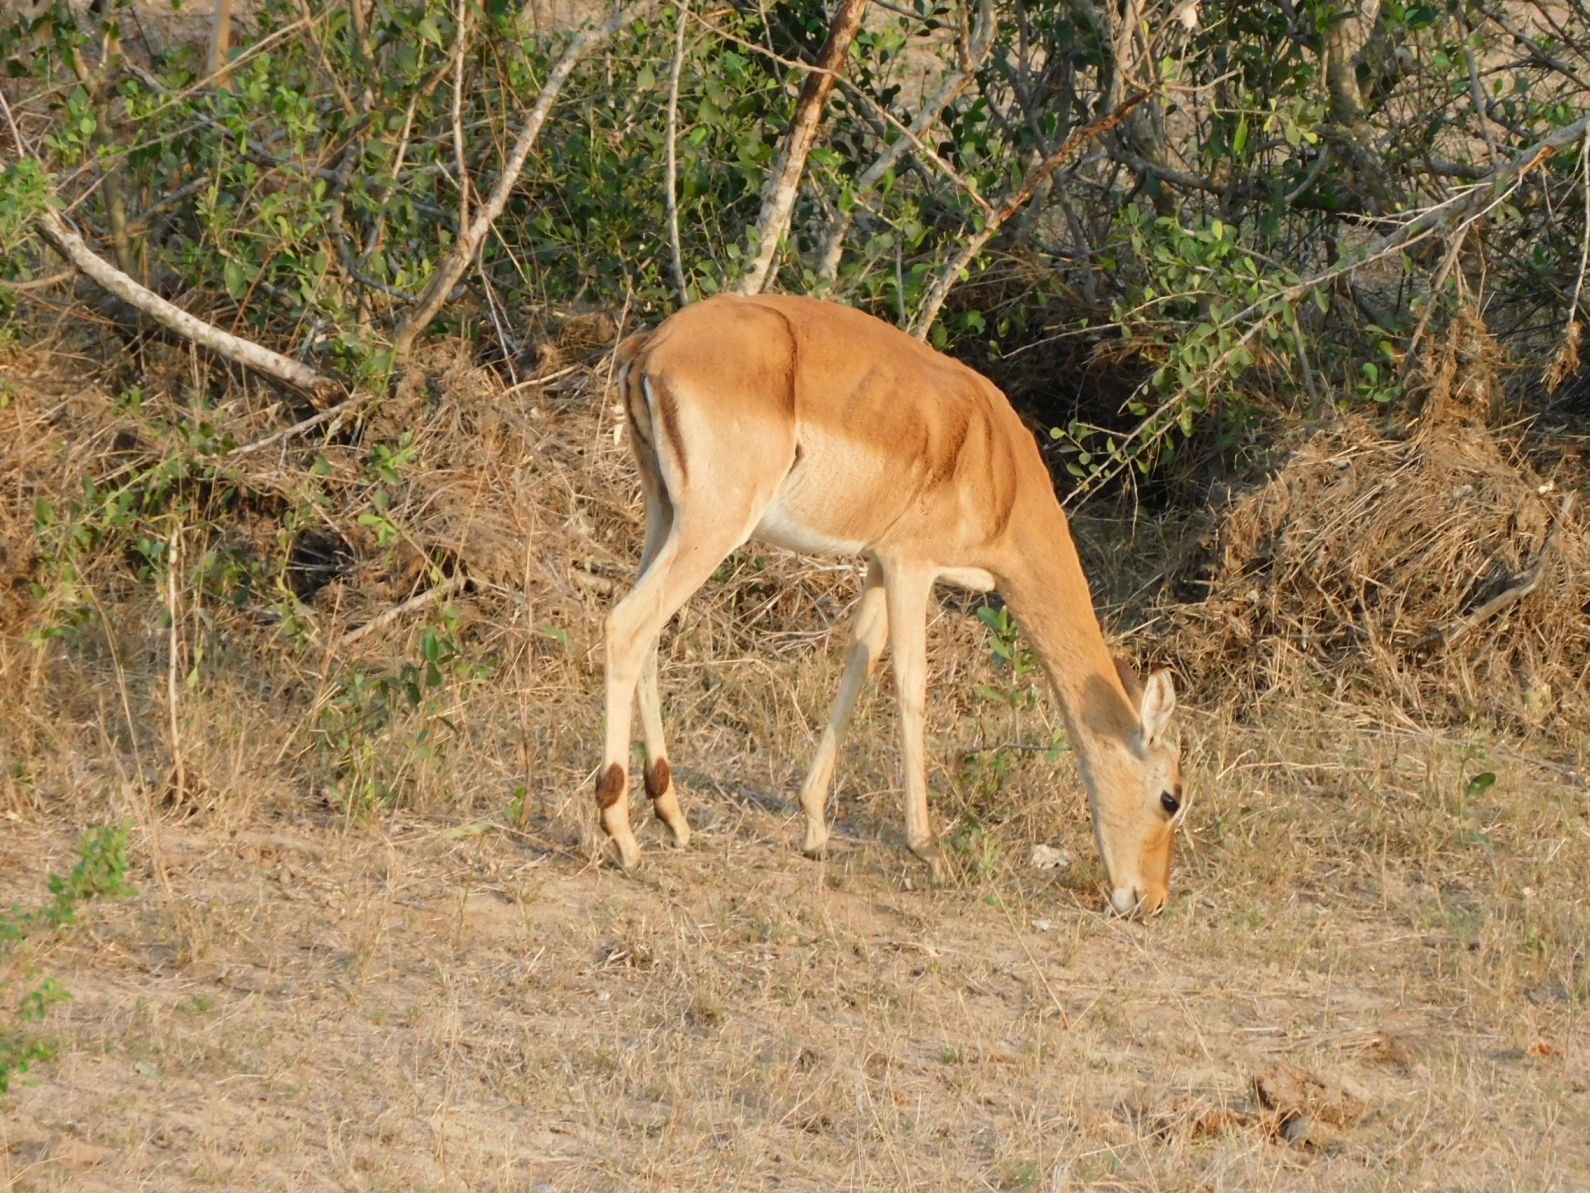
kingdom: Animalia
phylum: Chordata
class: Mammalia
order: Artiodactyla
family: Bovidae
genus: Aepyceros
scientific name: Aepyceros melampus
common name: Impala
